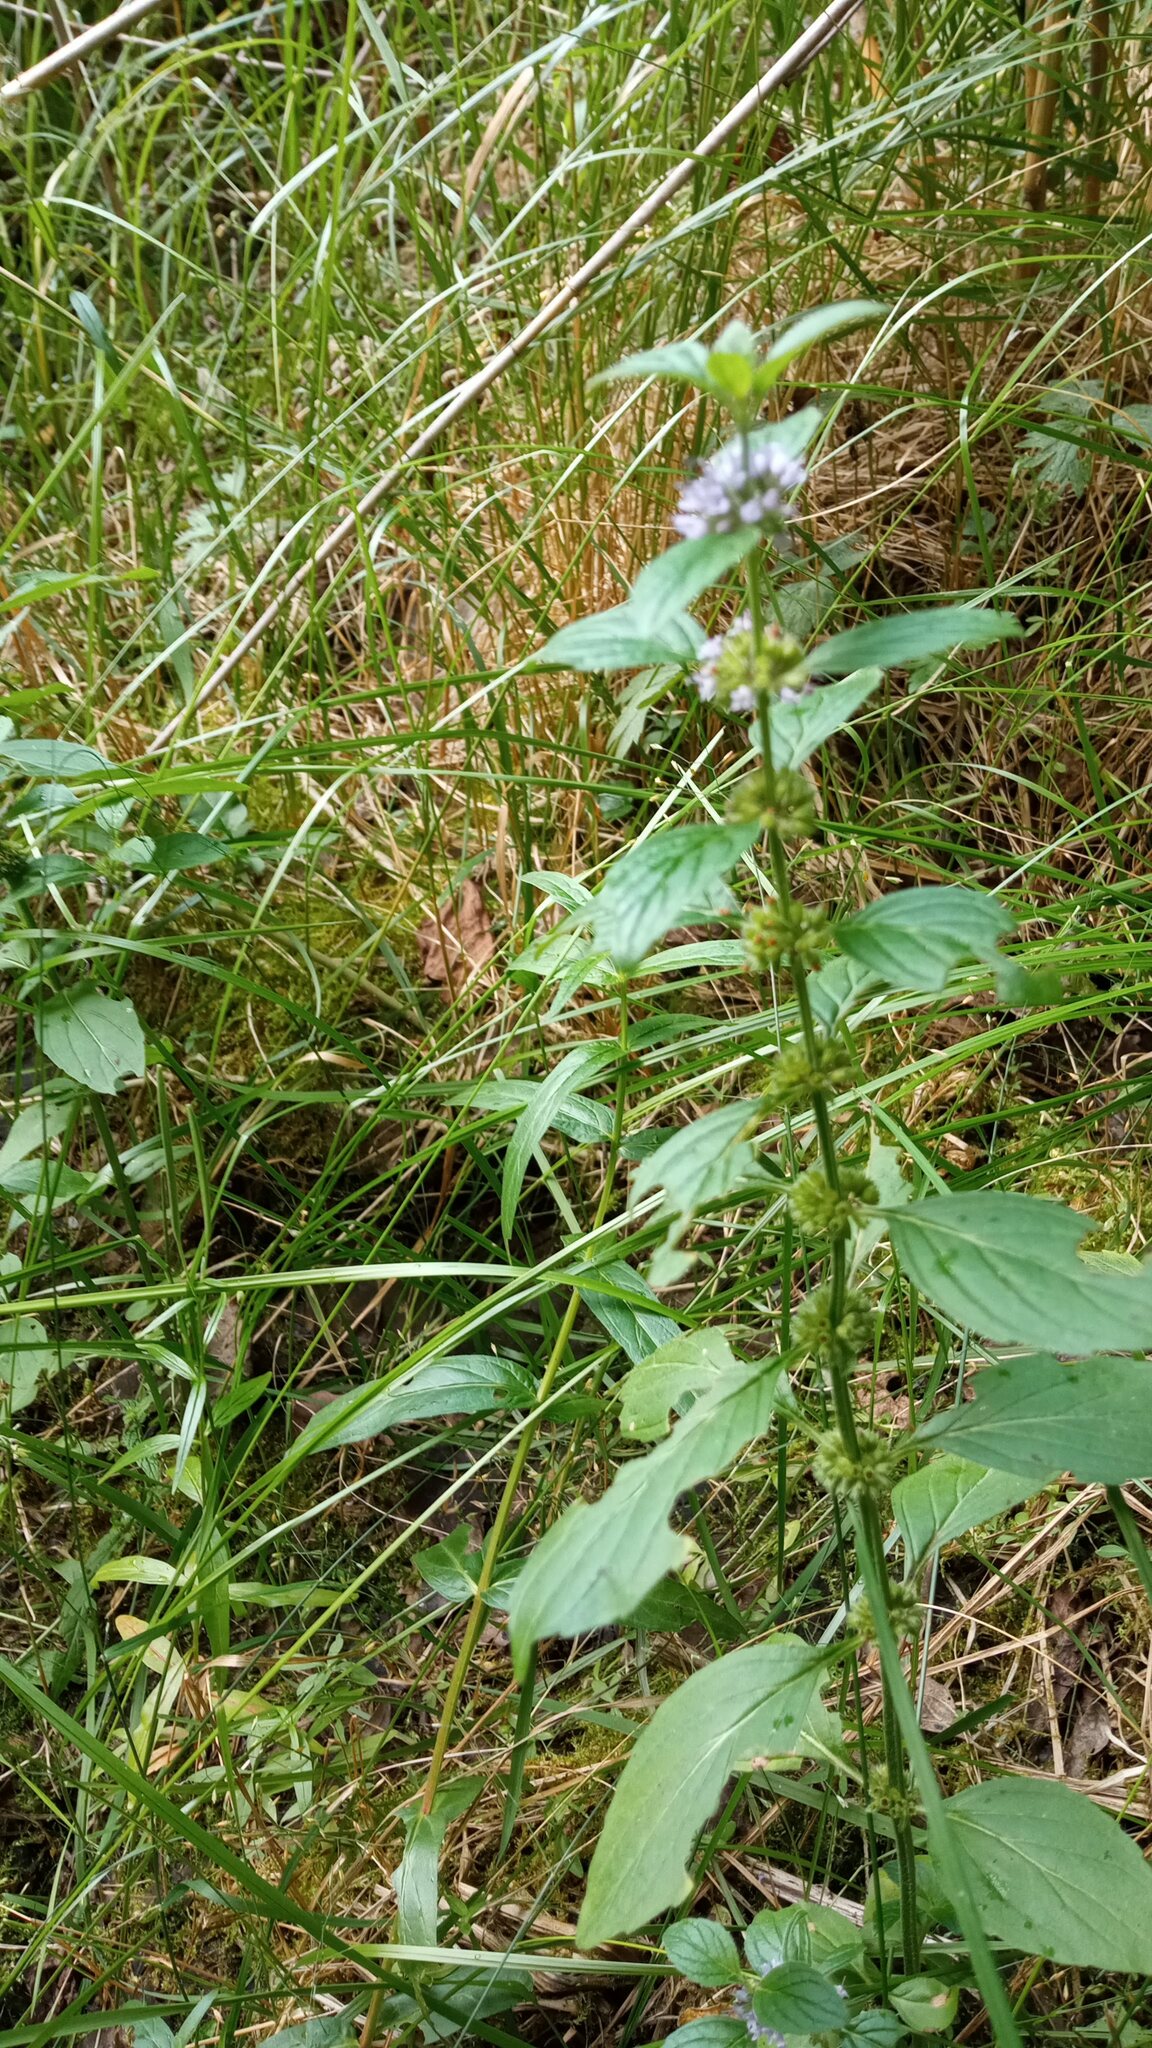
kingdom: Plantae
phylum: Tracheophyta
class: Magnoliopsida
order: Lamiales
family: Lamiaceae
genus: Mentha
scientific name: Mentha arvensis
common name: Corn mint
